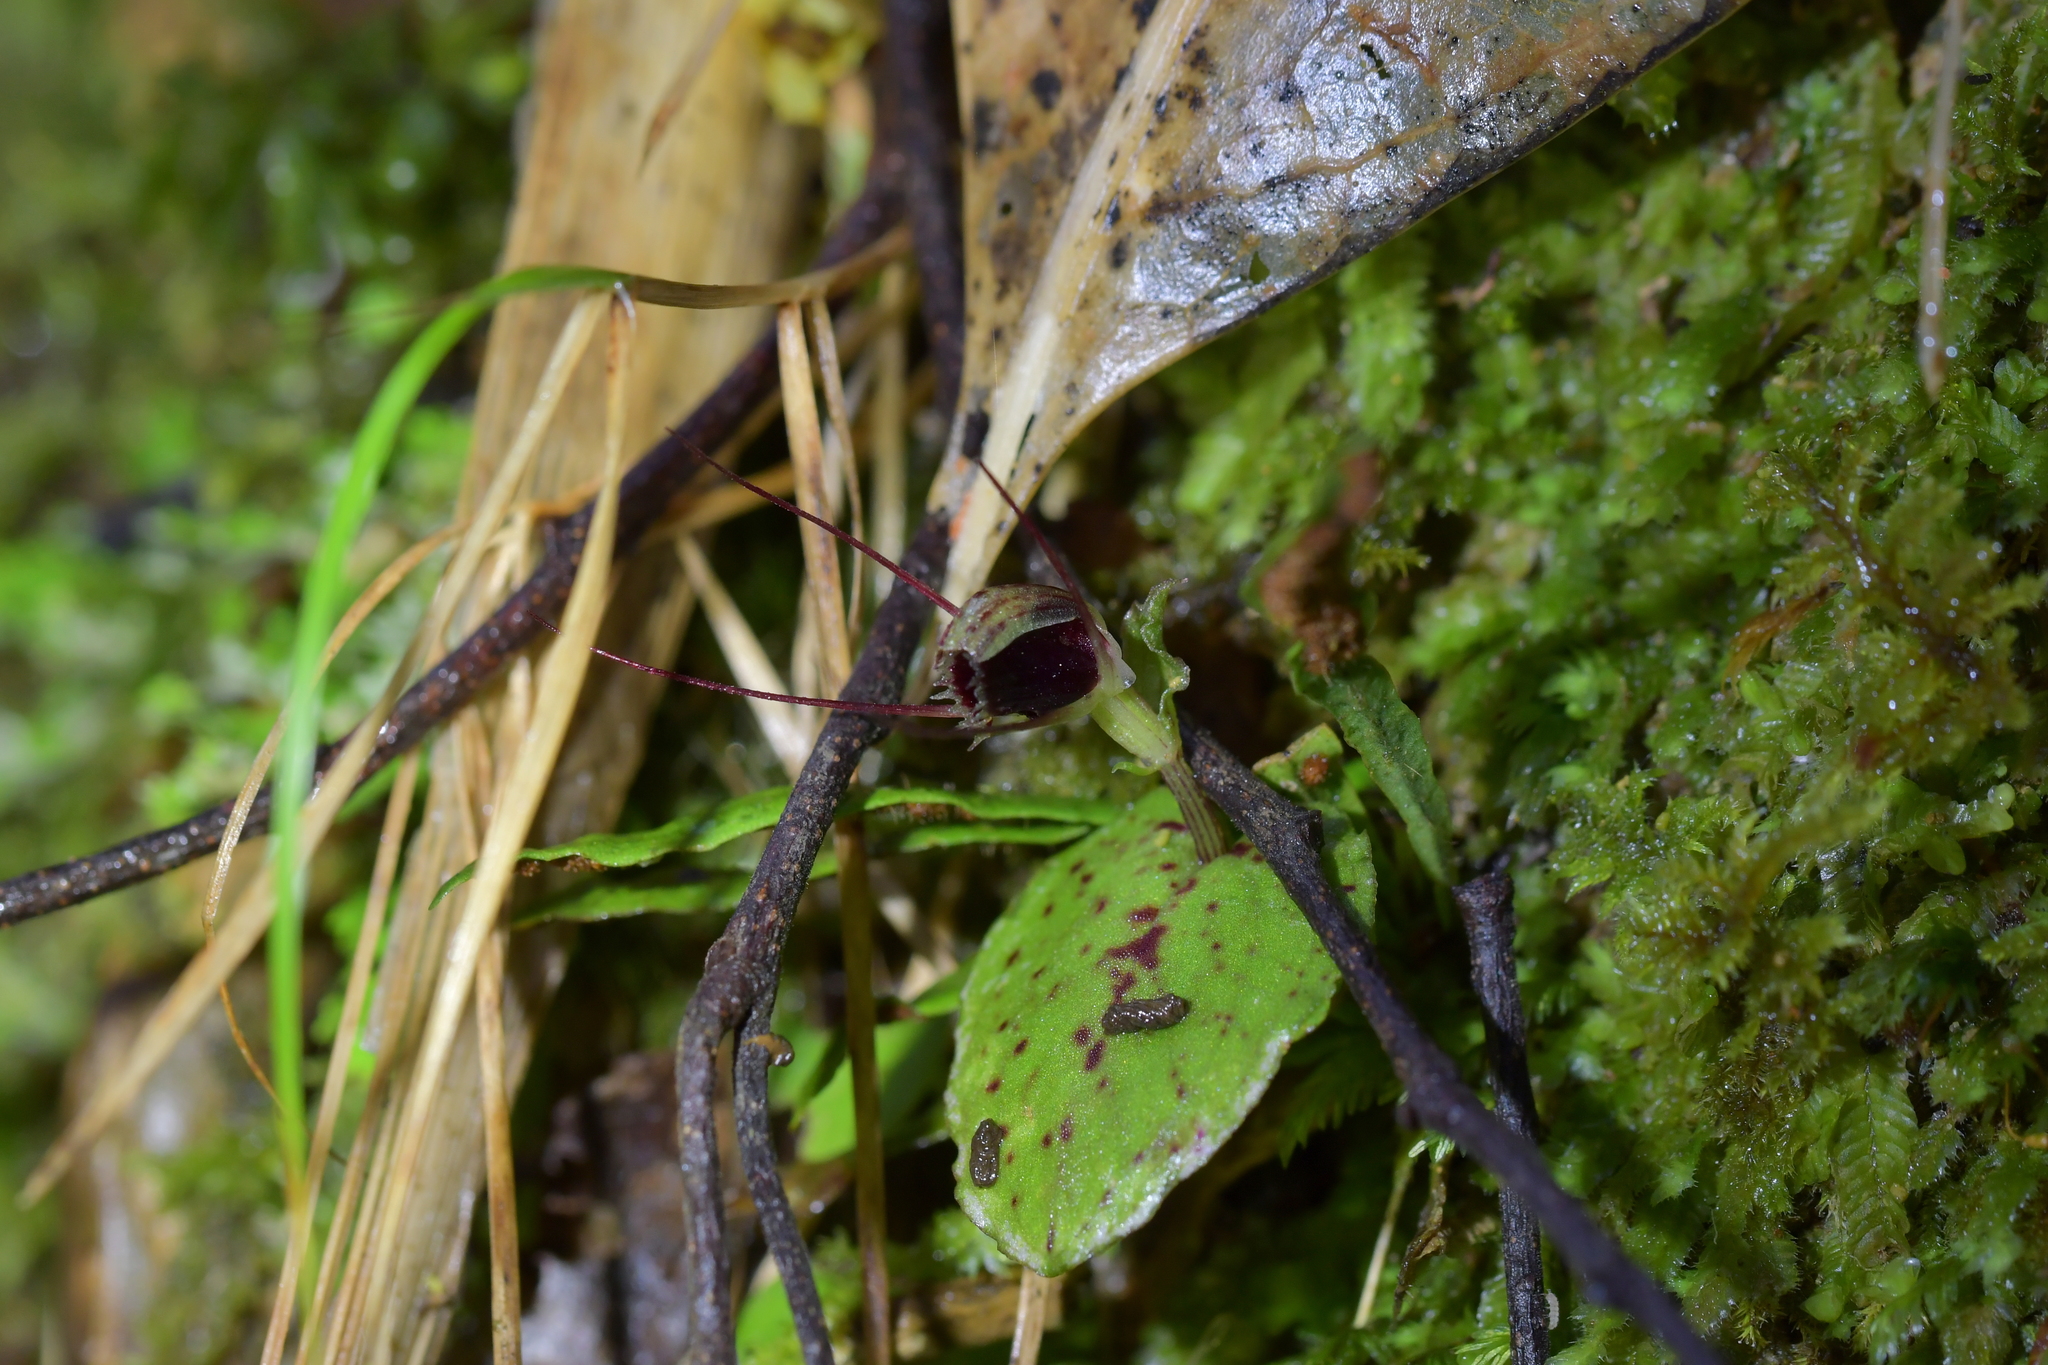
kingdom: Plantae
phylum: Tracheophyta
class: Liliopsida
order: Asparagales
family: Orchidaceae
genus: Corybas
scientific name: Corybas oblongus
